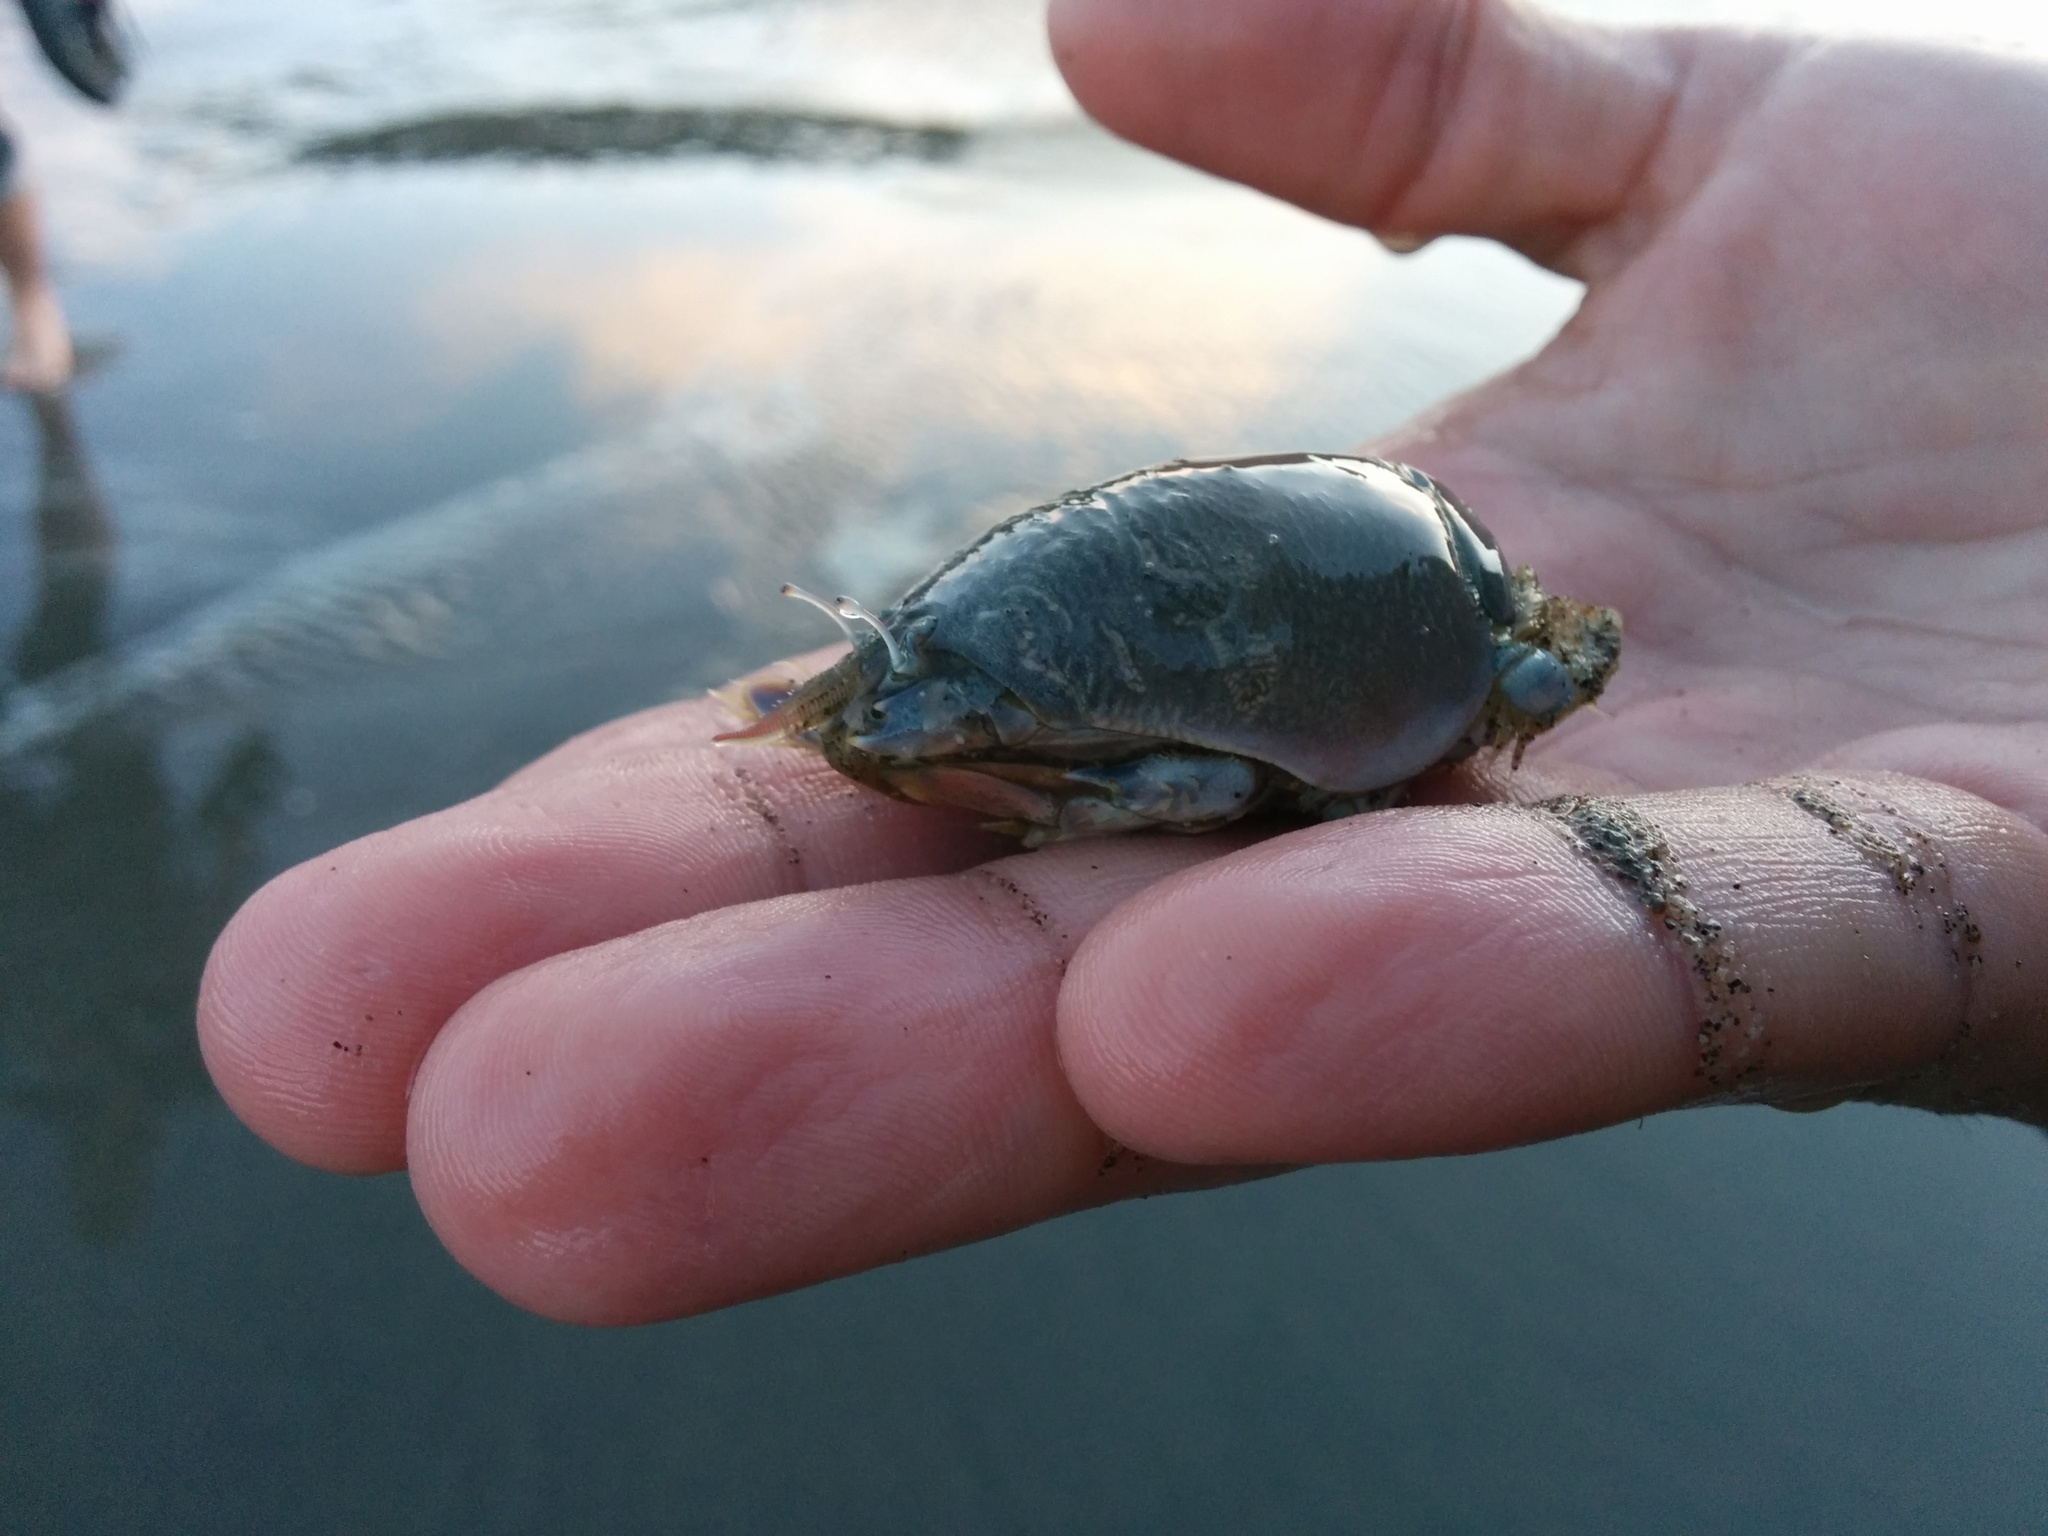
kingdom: Animalia
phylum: Arthropoda
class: Malacostraca
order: Decapoda
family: Hippidae
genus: Emerita
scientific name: Emerita analoga
